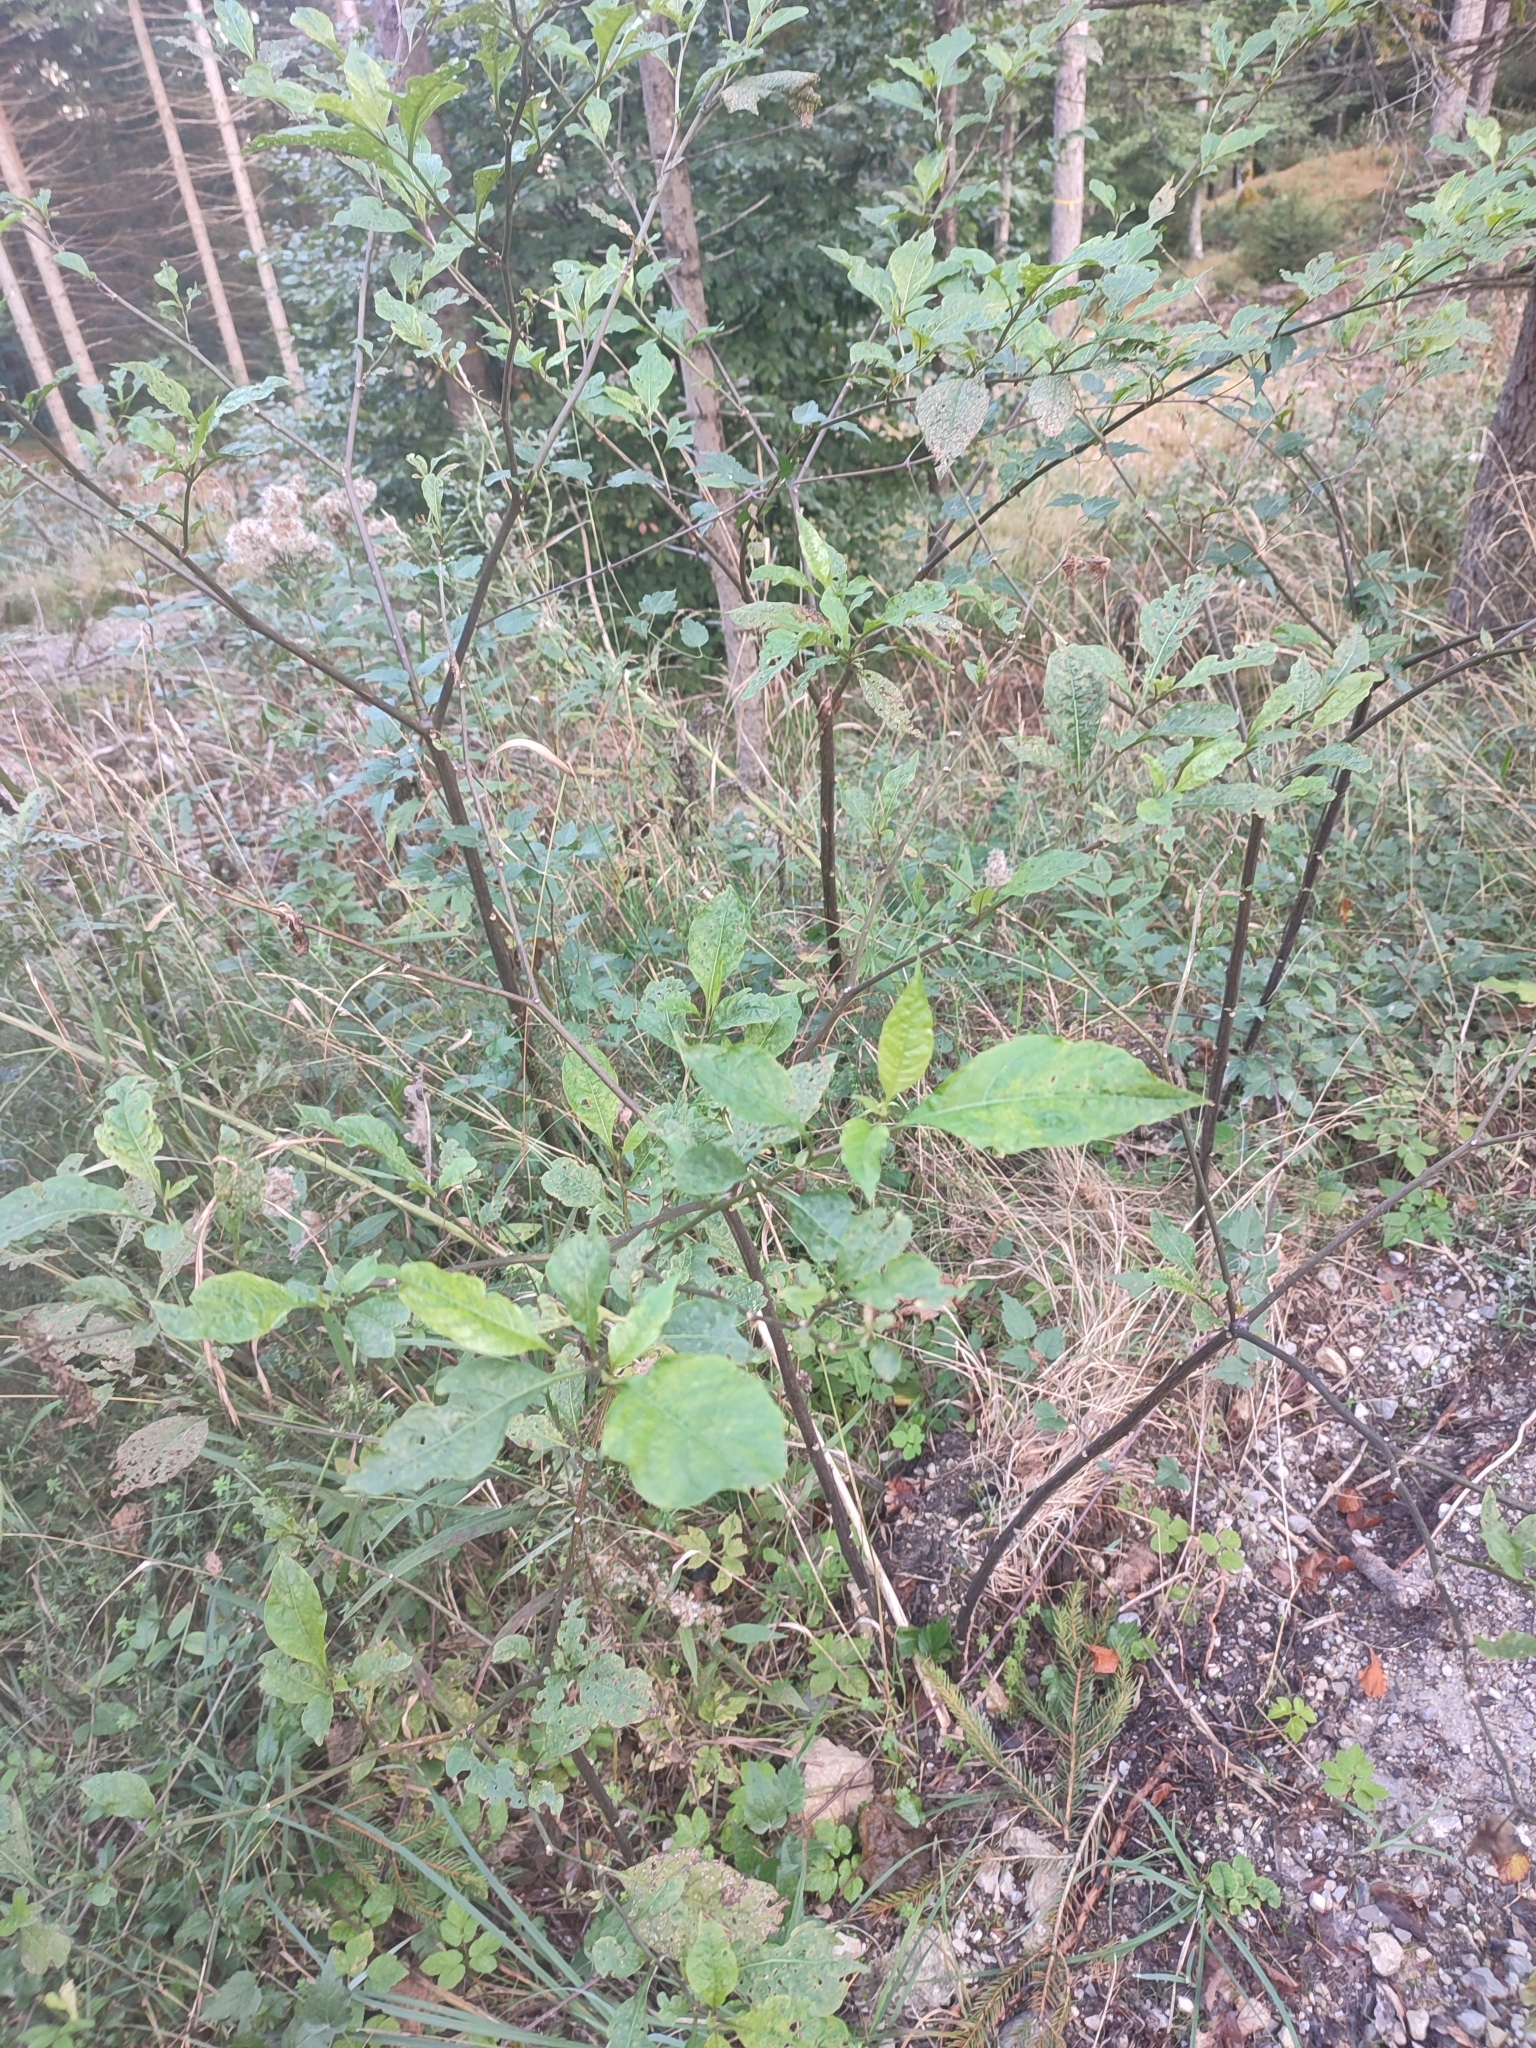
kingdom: Plantae
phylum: Tracheophyta
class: Magnoliopsida
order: Solanales
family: Solanaceae
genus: Atropa
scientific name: Atropa belladonna
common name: Deadly nightshade
